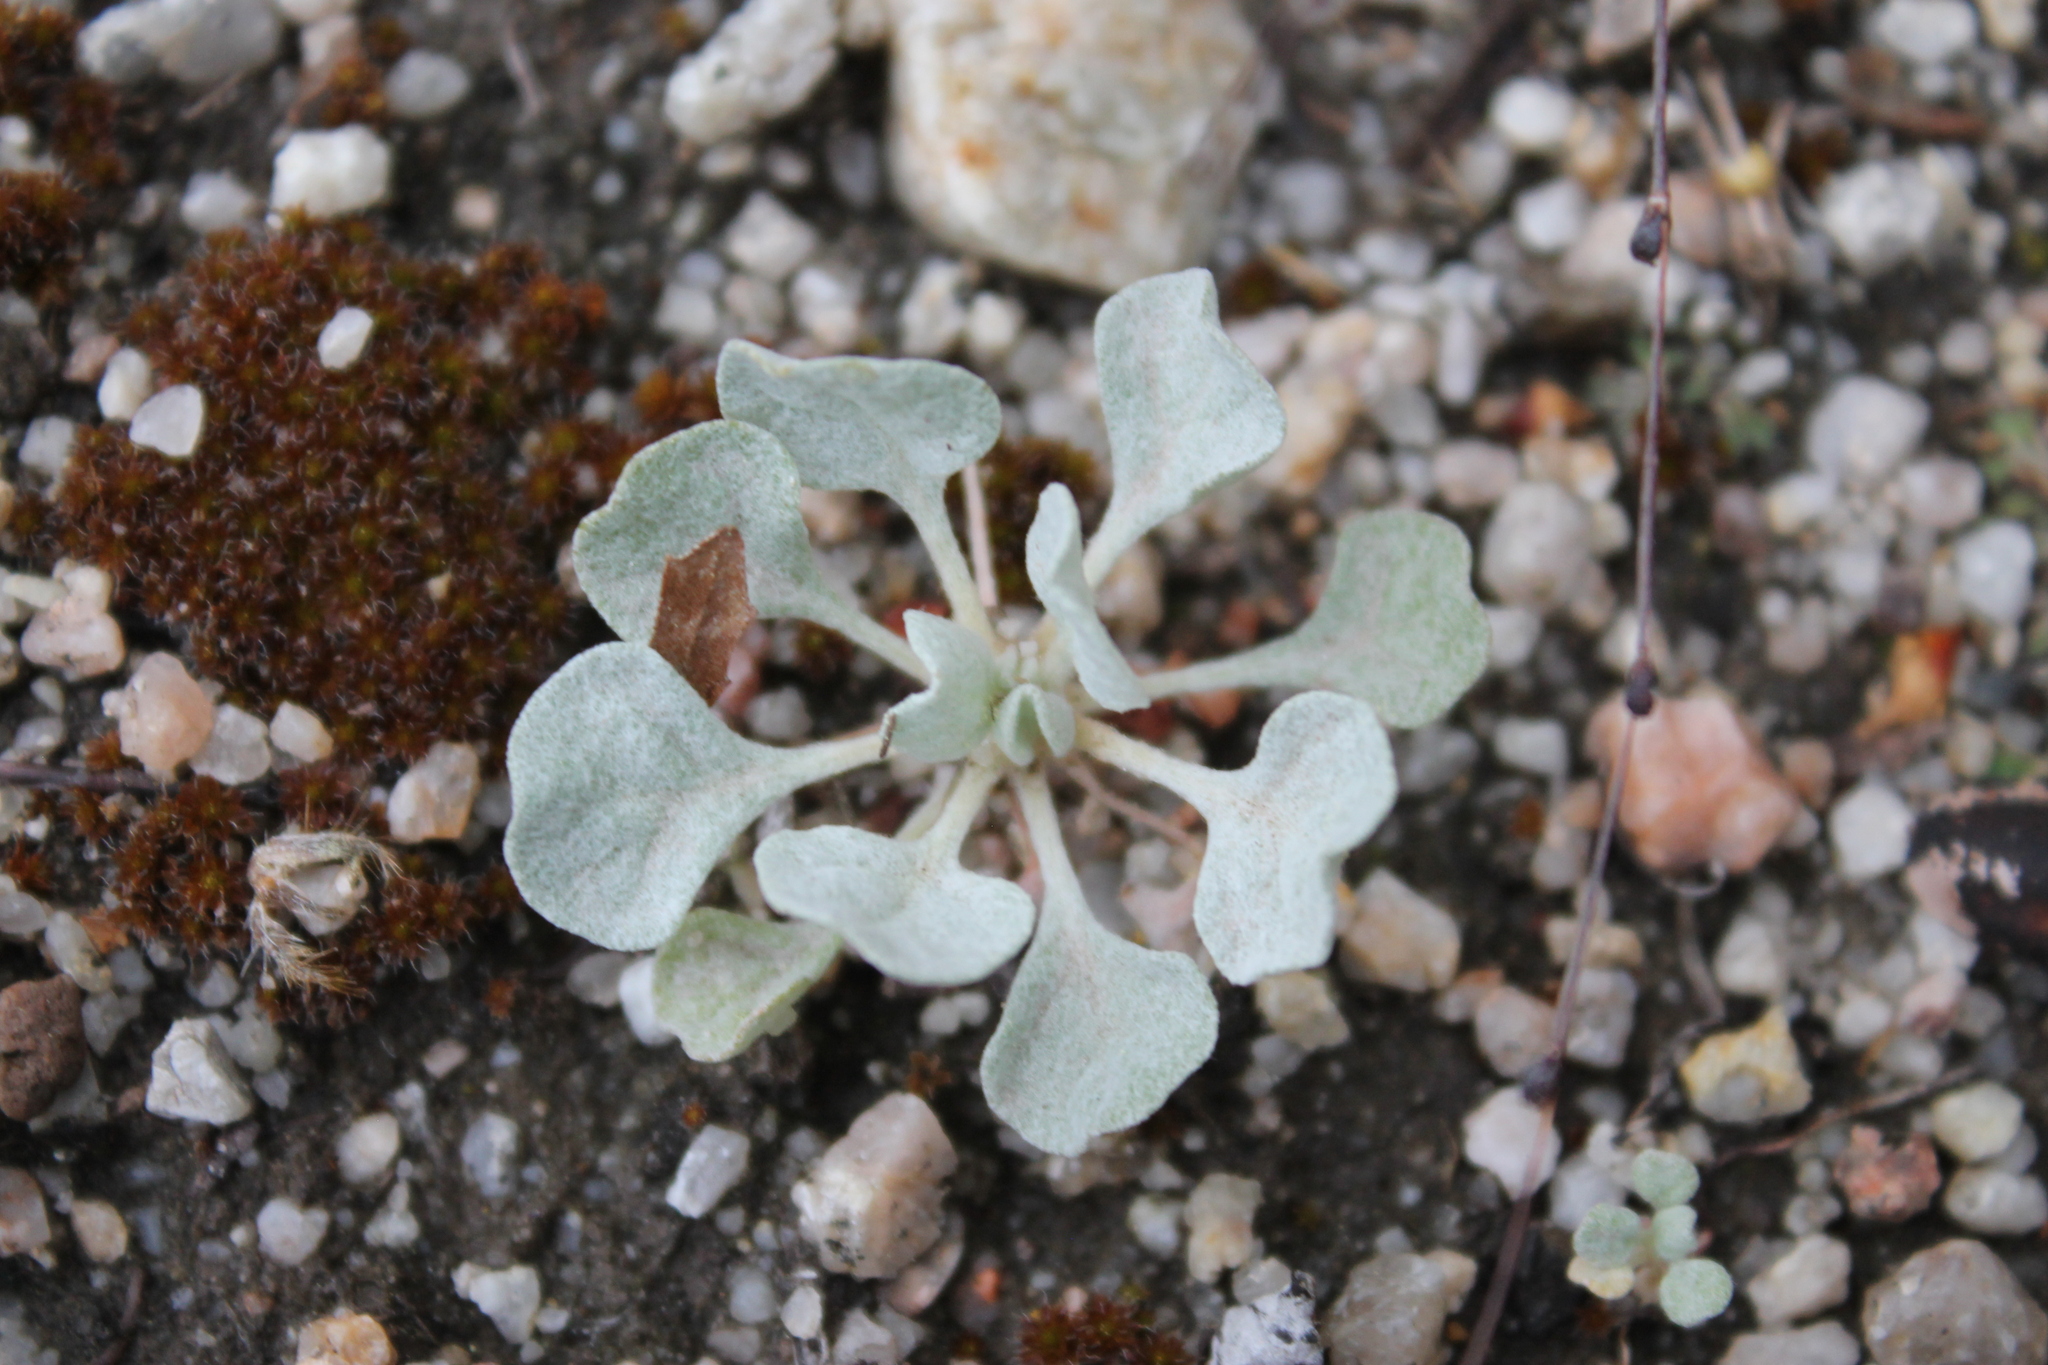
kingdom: Plantae
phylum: Tracheophyta
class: Magnoliopsida
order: Caryophyllales
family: Polygonaceae
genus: Eriogonum
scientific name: Eriogonum elegans
